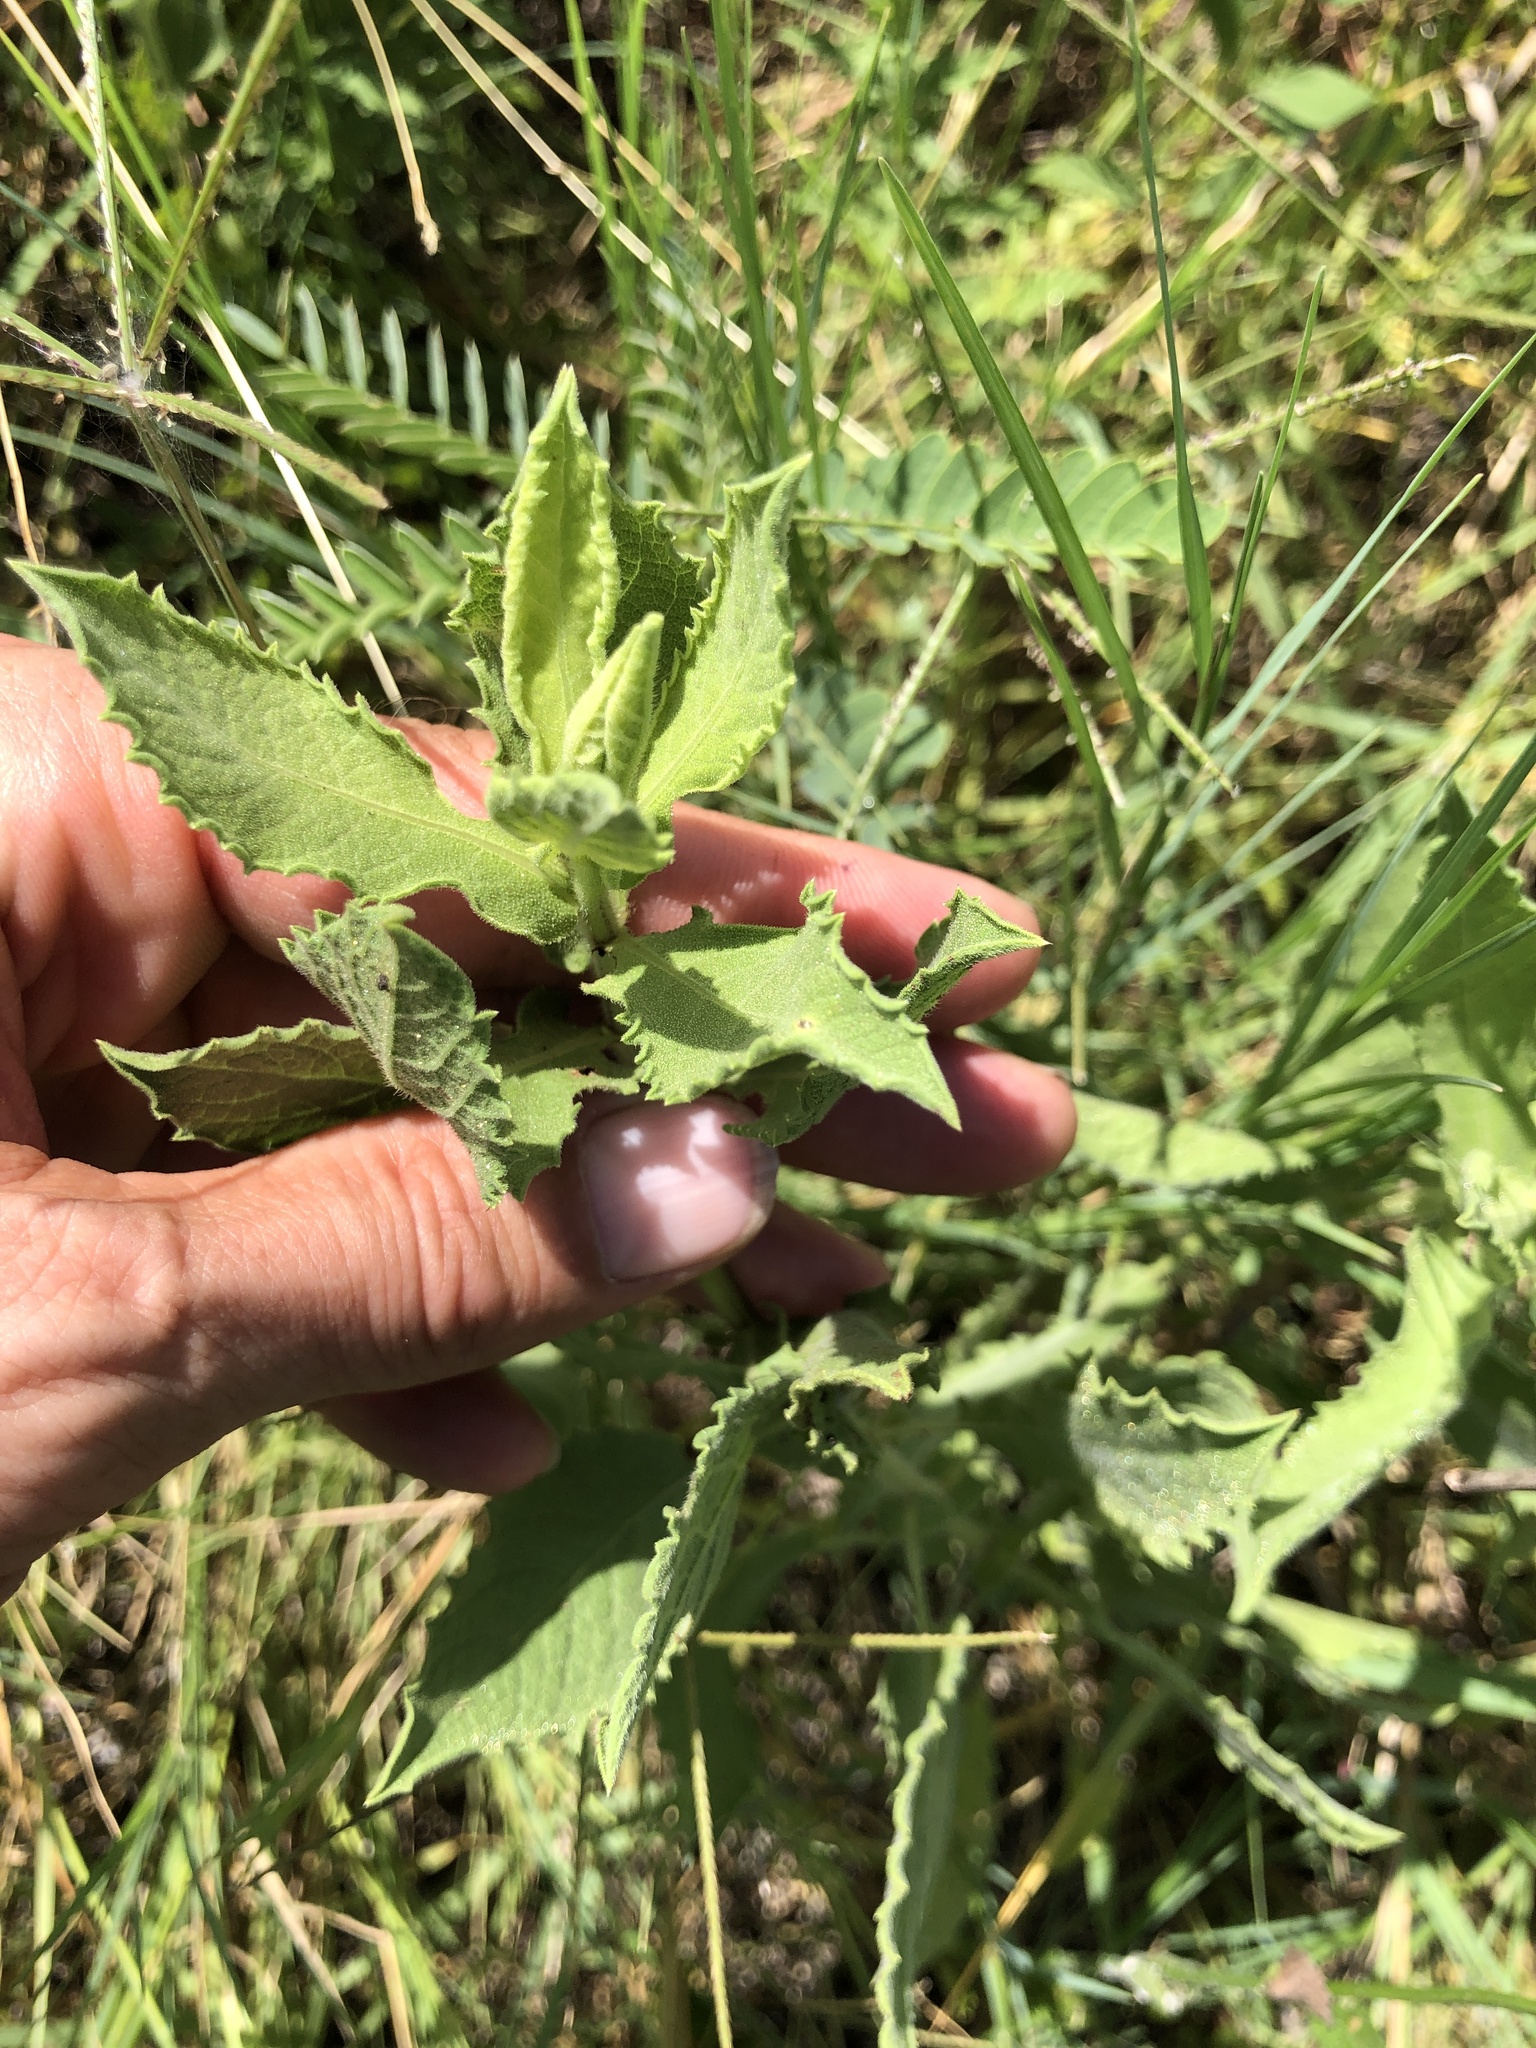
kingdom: Plantae
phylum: Tracheophyta
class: Magnoliopsida
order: Asterales
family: Asteraceae
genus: Heterotheca
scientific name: Heterotheca subaxillaris
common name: Camphorweed
